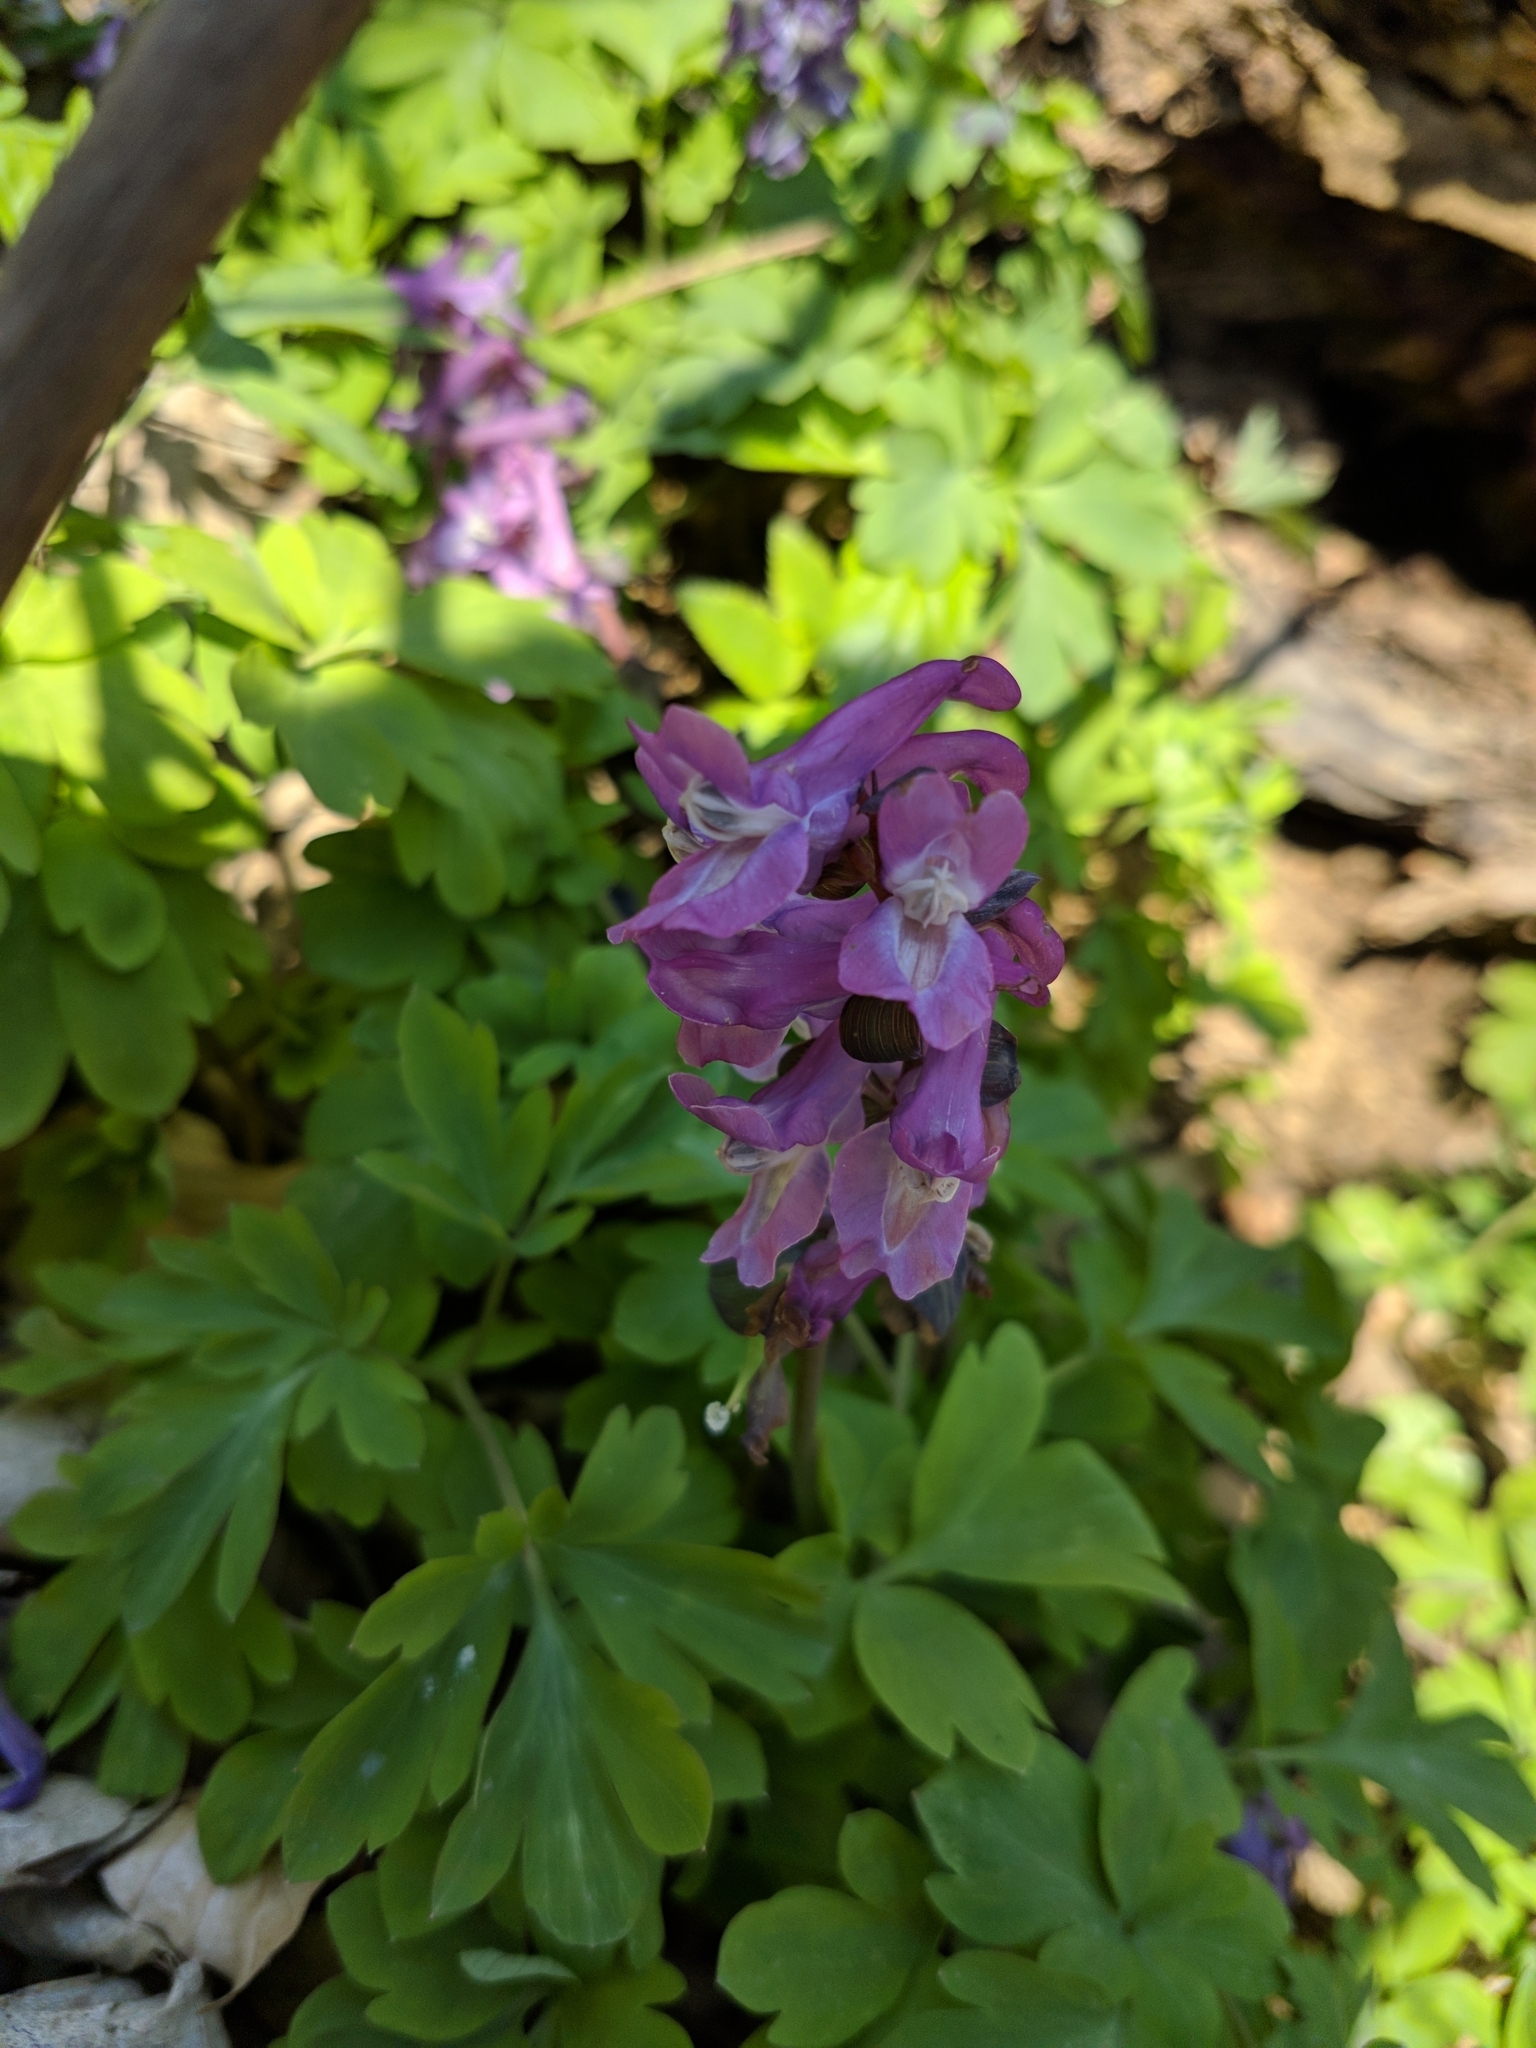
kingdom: Plantae
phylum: Tracheophyta
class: Magnoliopsida
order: Ranunculales
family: Papaveraceae
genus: Corydalis
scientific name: Corydalis cava
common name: Hollowroot
